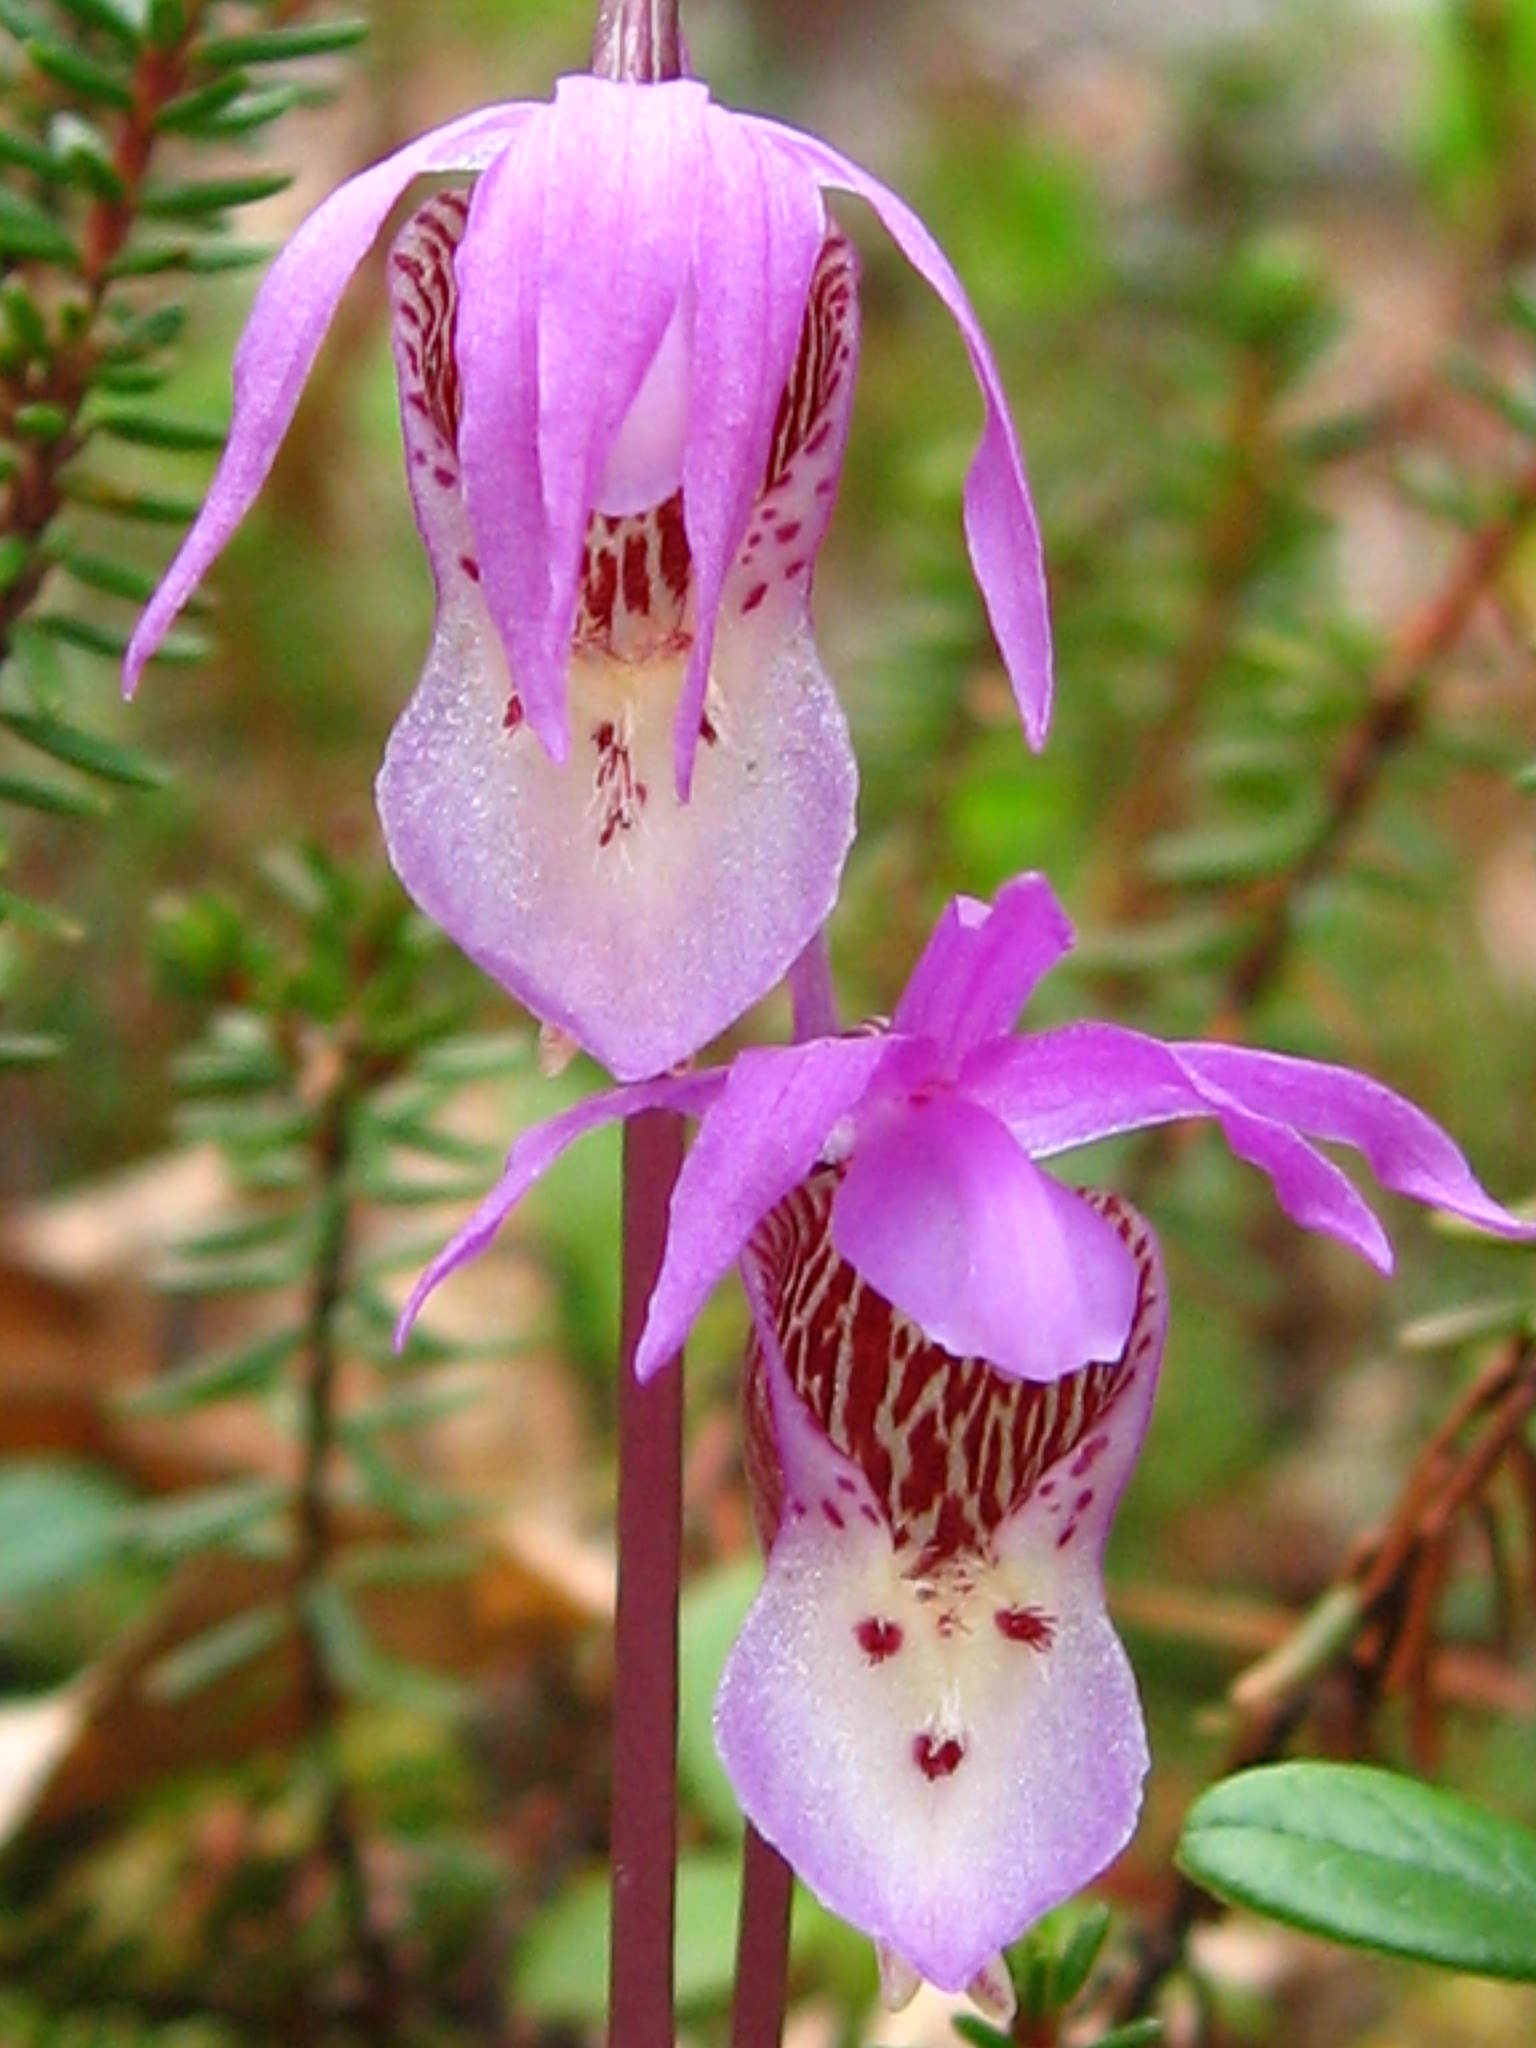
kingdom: Plantae
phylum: Tracheophyta
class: Liliopsida
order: Asparagales
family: Orchidaceae
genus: Calypso
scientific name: Calypso bulbosa
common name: Calypso
